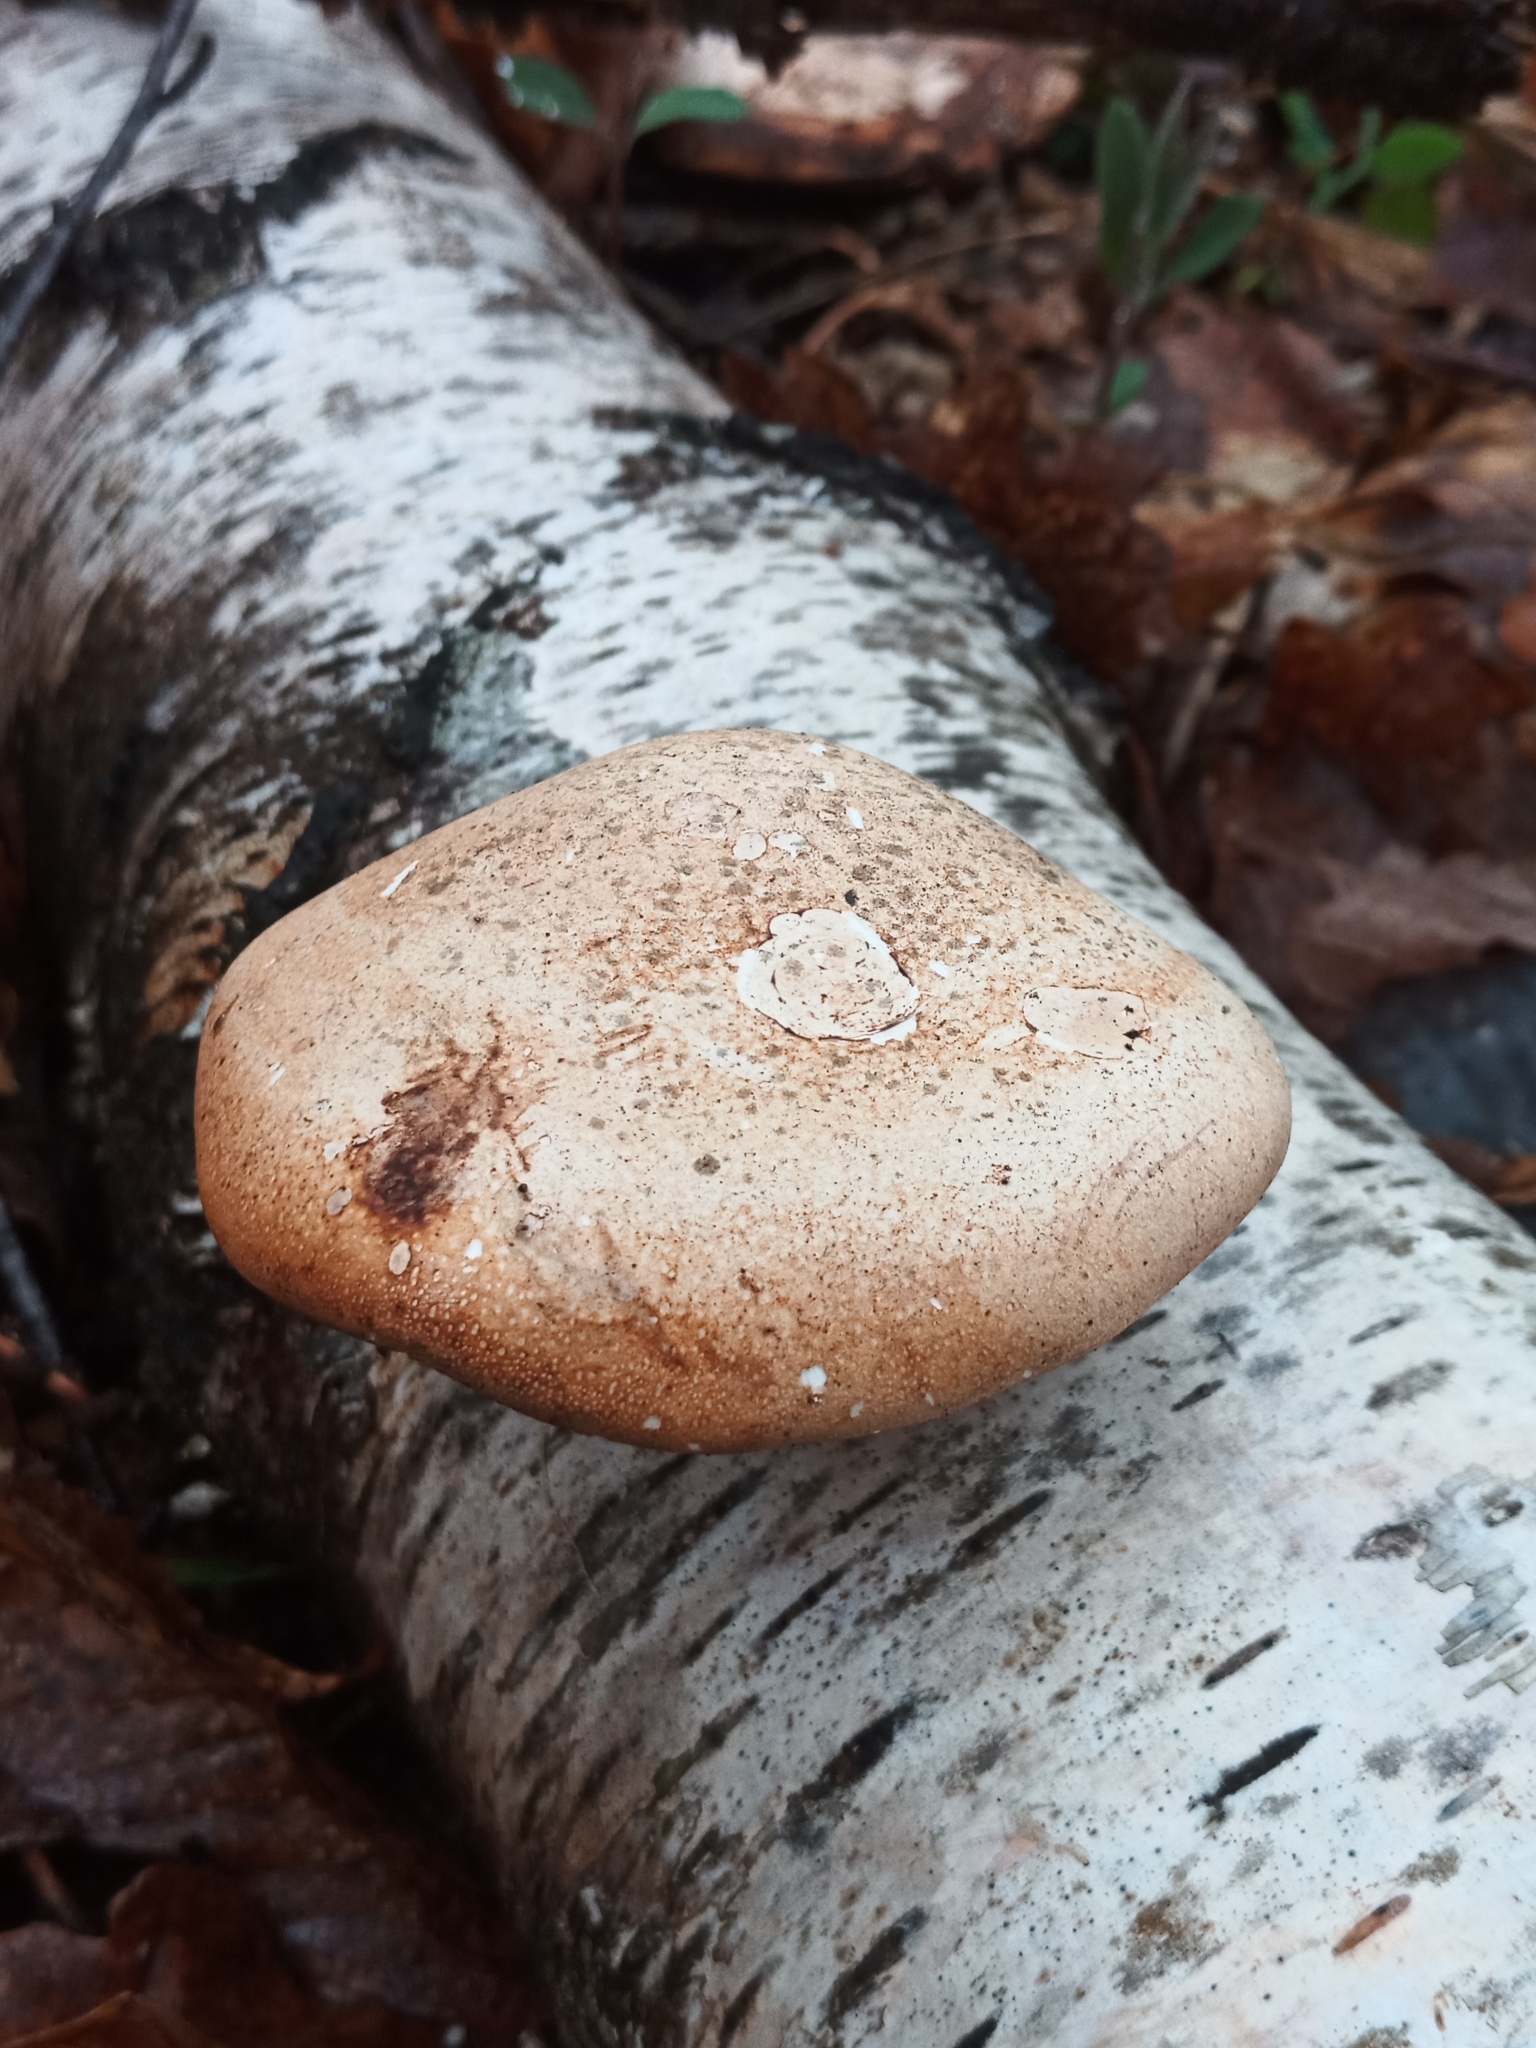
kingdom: Fungi
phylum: Basidiomycota
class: Agaricomycetes
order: Polyporales
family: Fomitopsidaceae
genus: Fomitopsis
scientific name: Fomitopsis betulina
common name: Birch polypore
